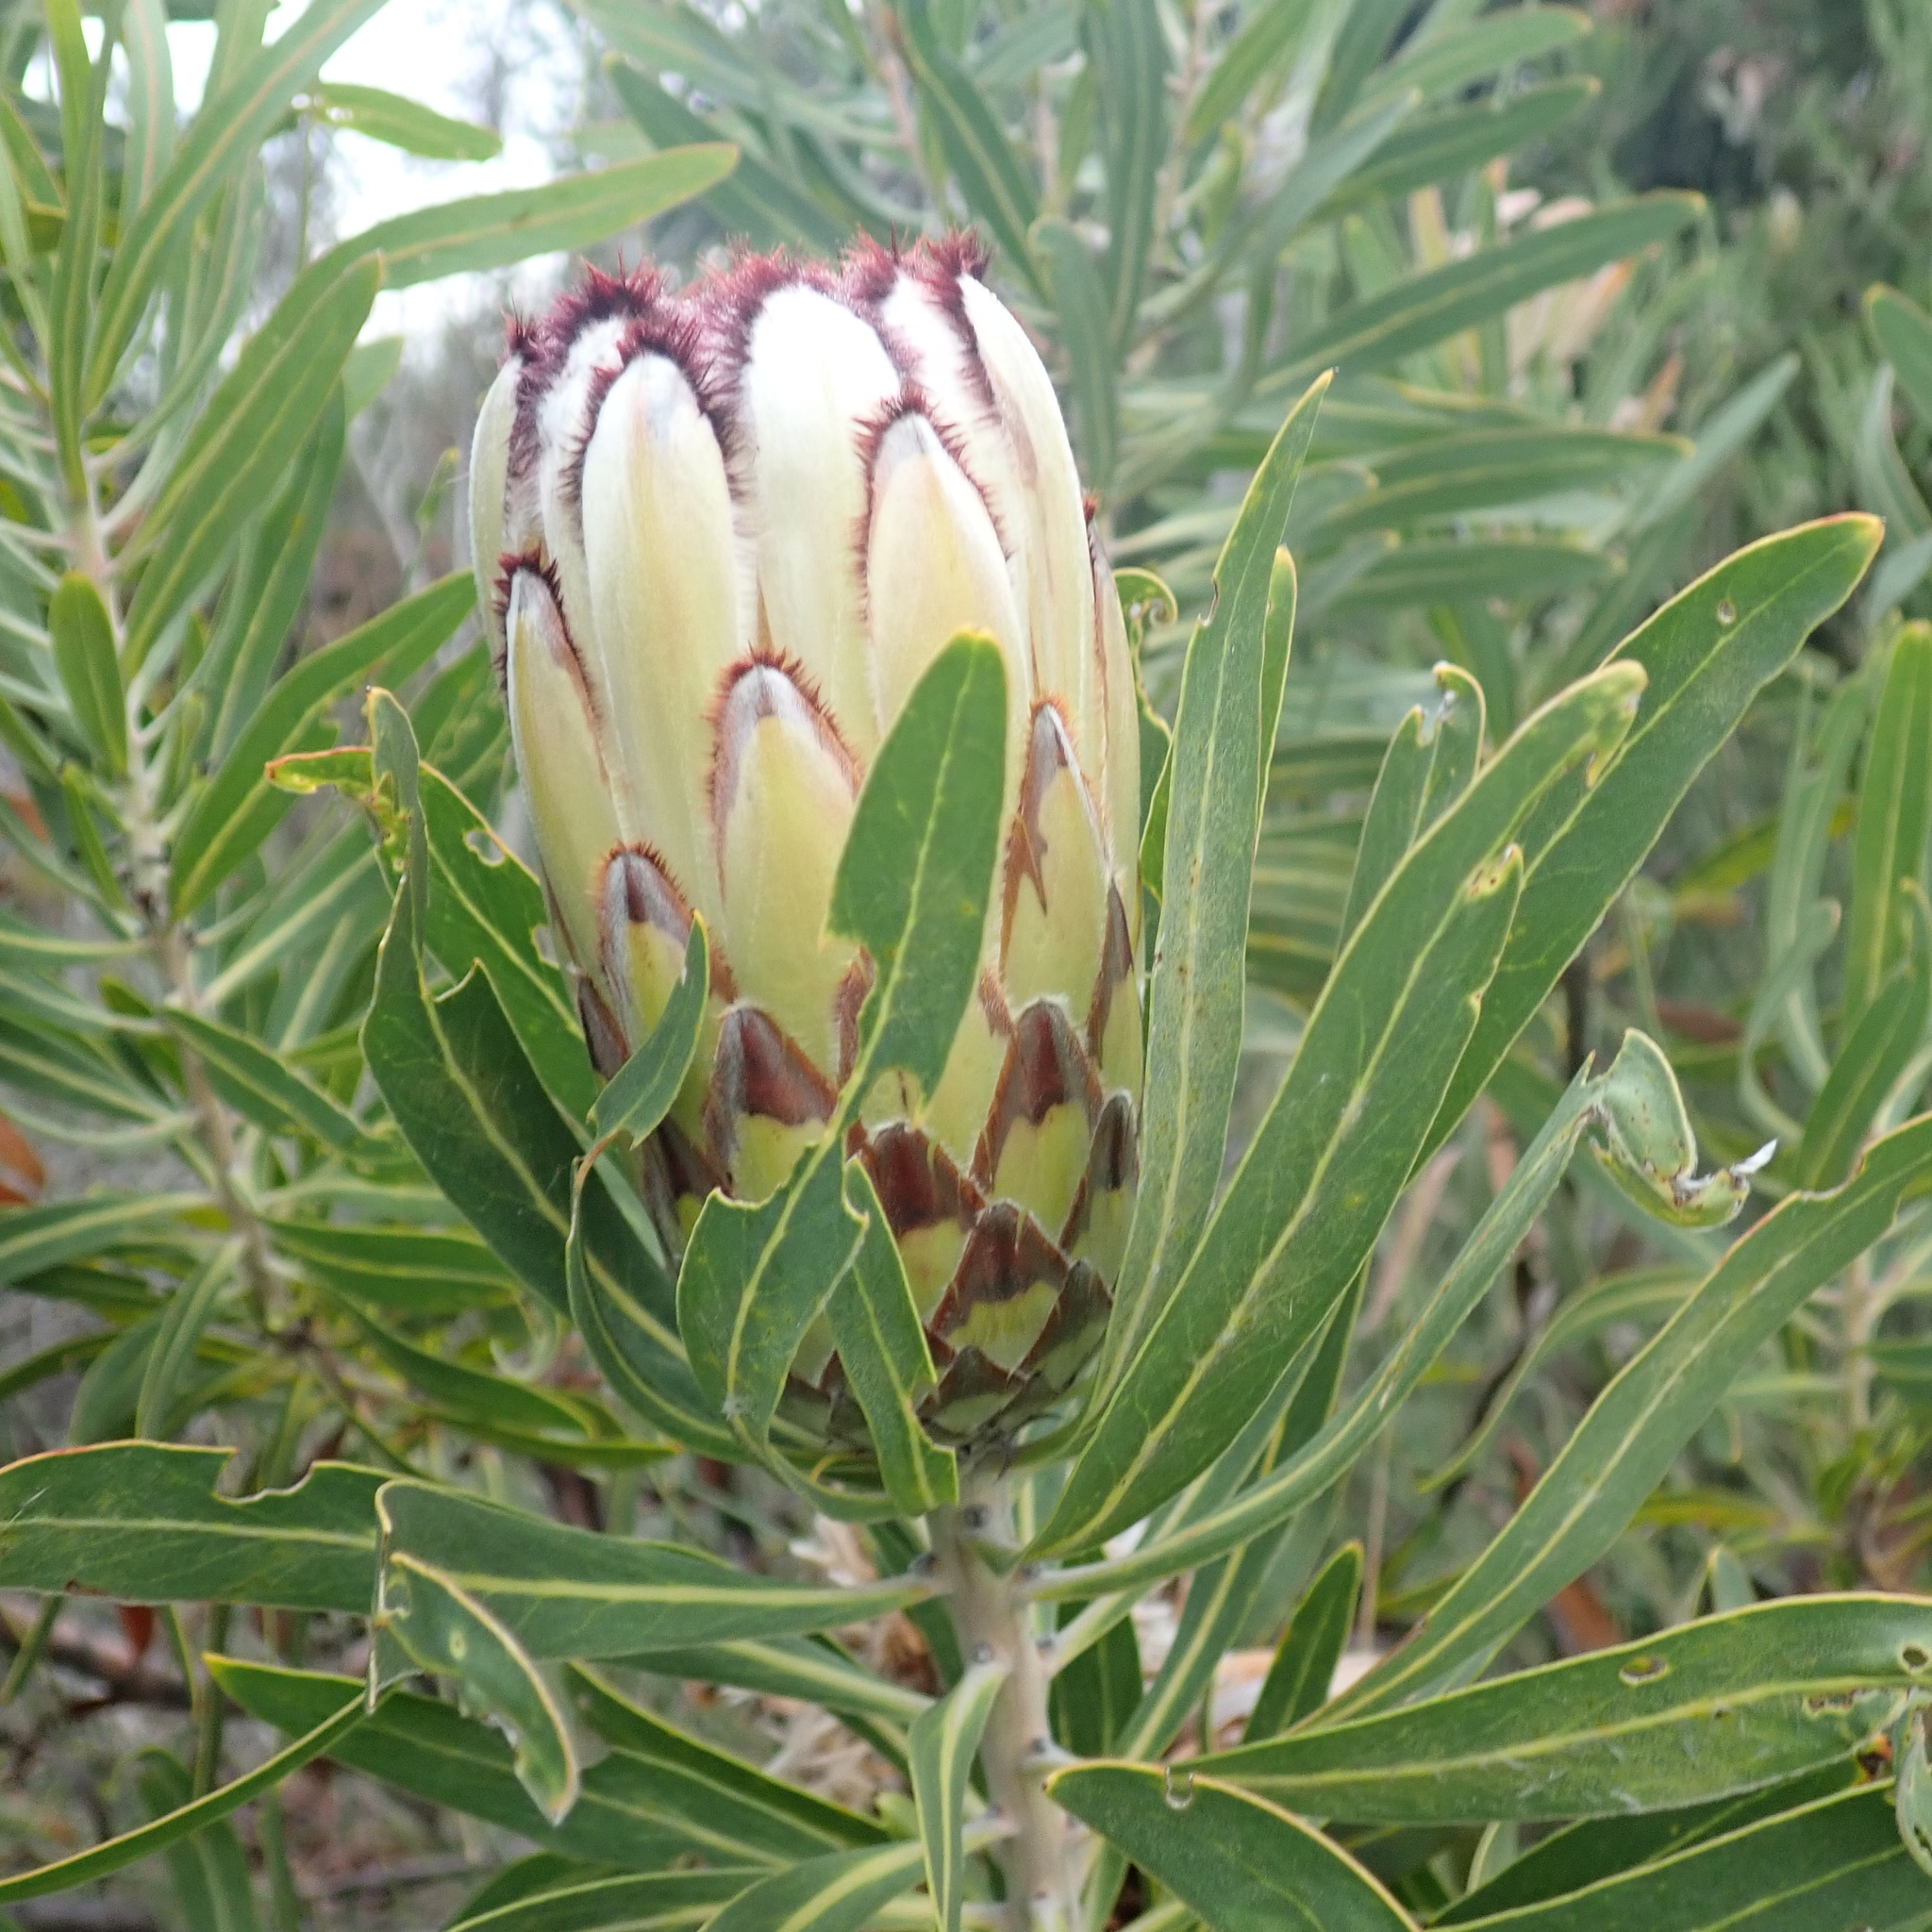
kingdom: Plantae
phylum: Tracheophyta
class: Magnoliopsida
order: Proteales
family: Proteaceae
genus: Protea
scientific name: Protea neriifolia
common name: Blue sugarbush
